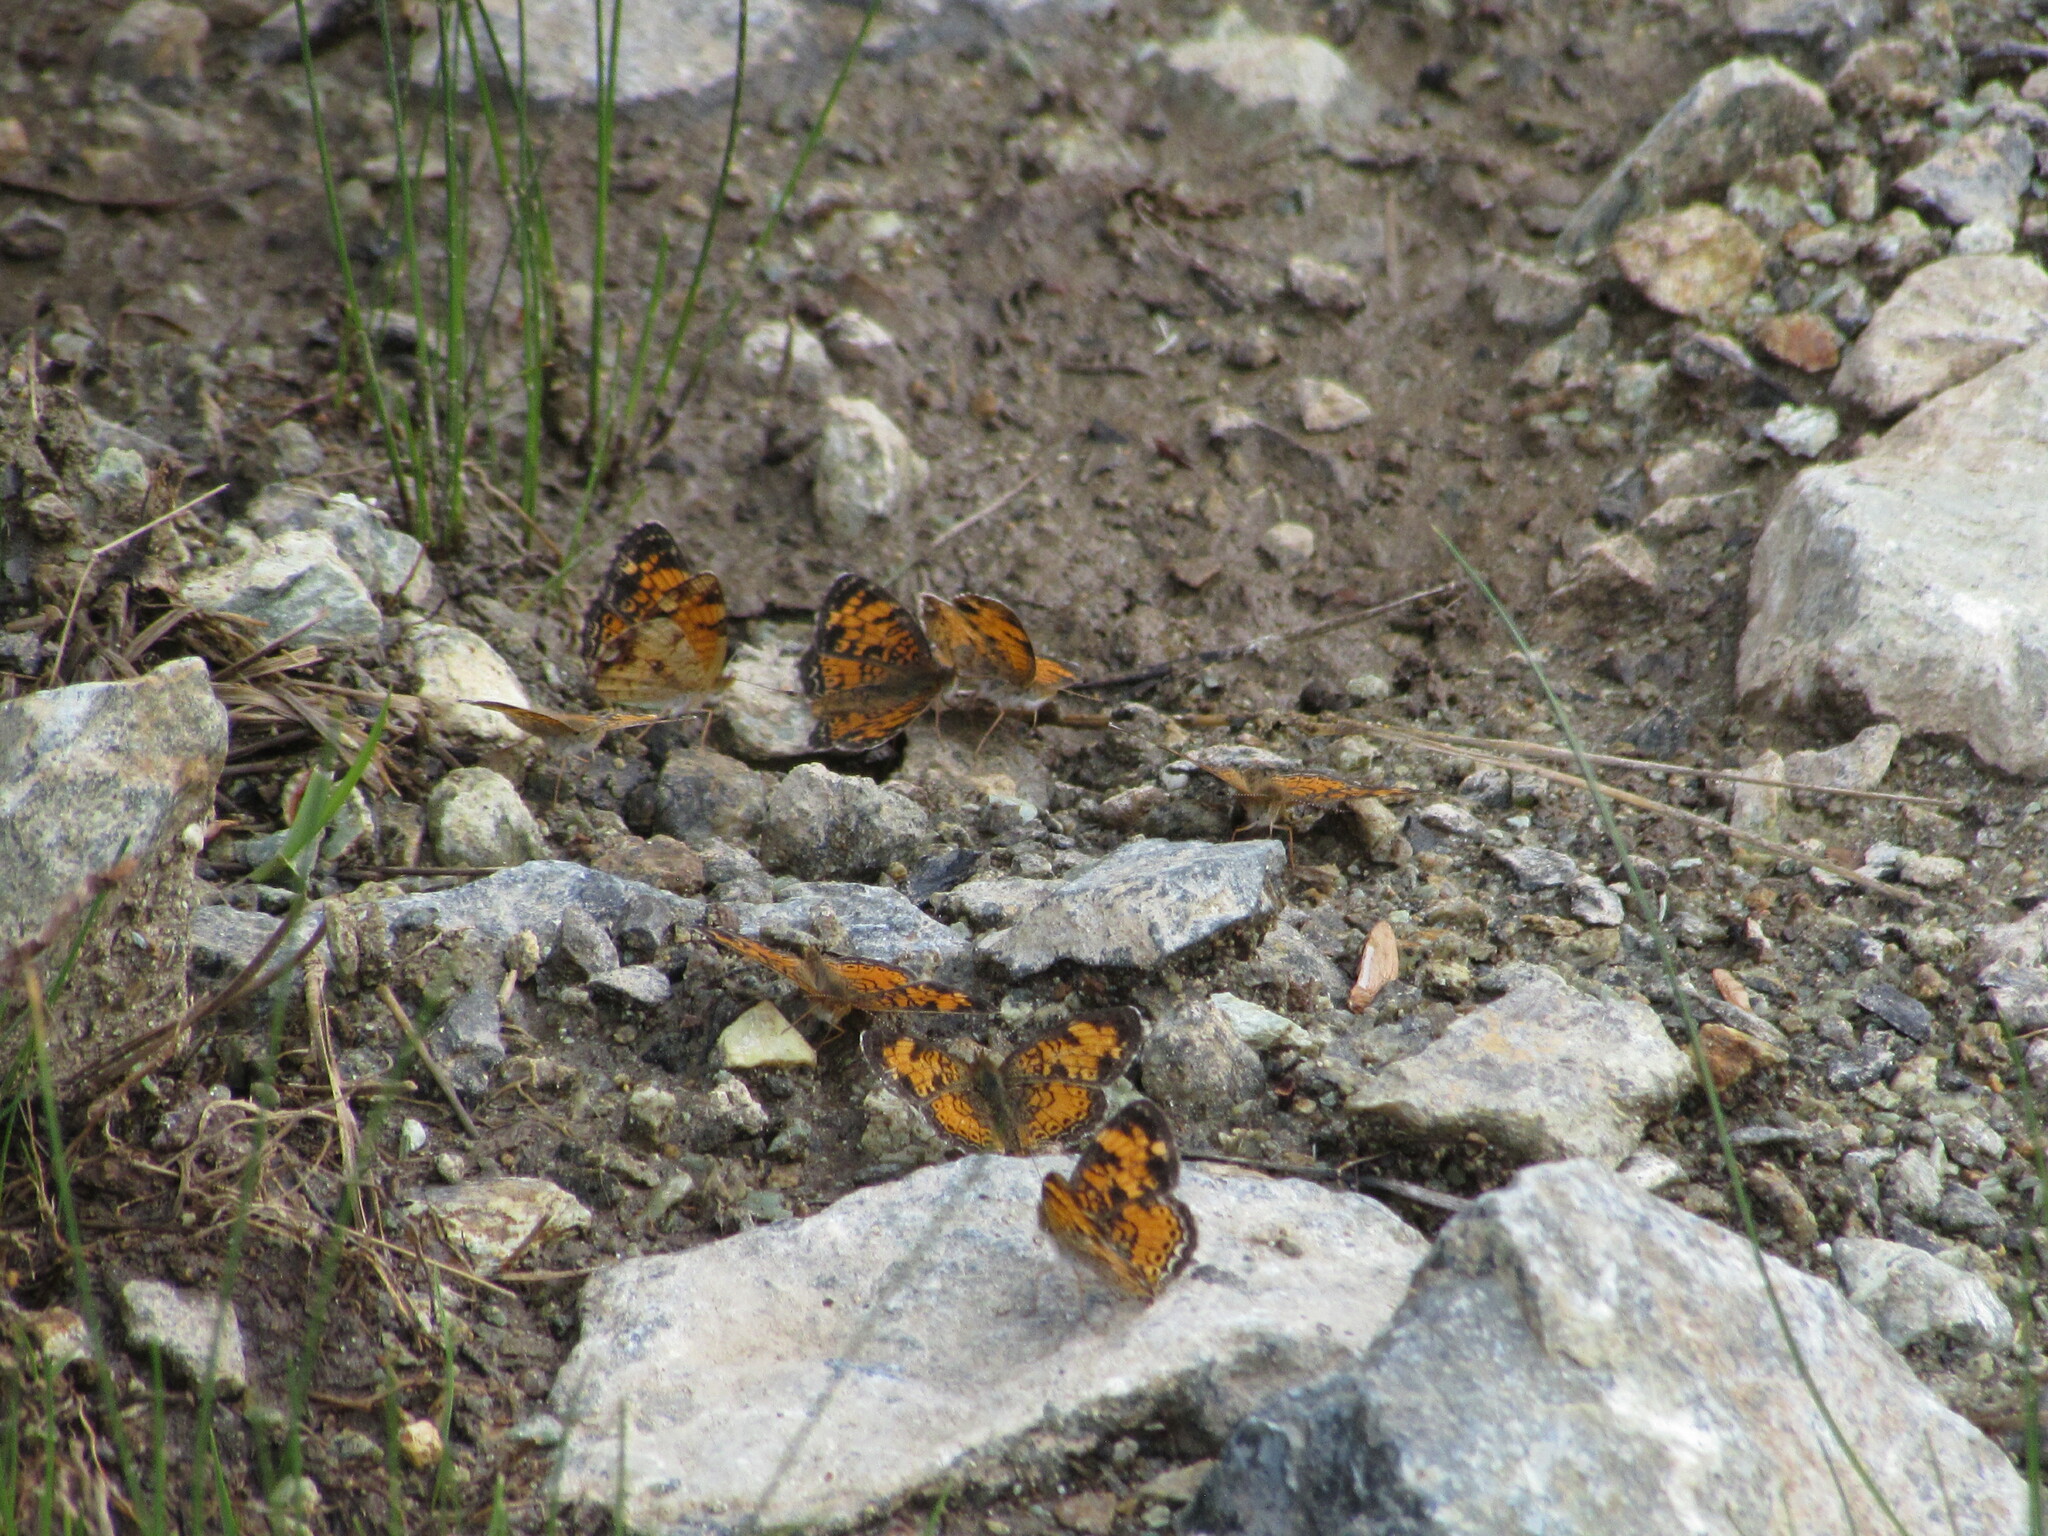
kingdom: Animalia
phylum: Arthropoda
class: Insecta
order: Lepidoptera
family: Nymphalidae
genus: Phyciodes
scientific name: Phyciodes tharos
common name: Pearl crescent
